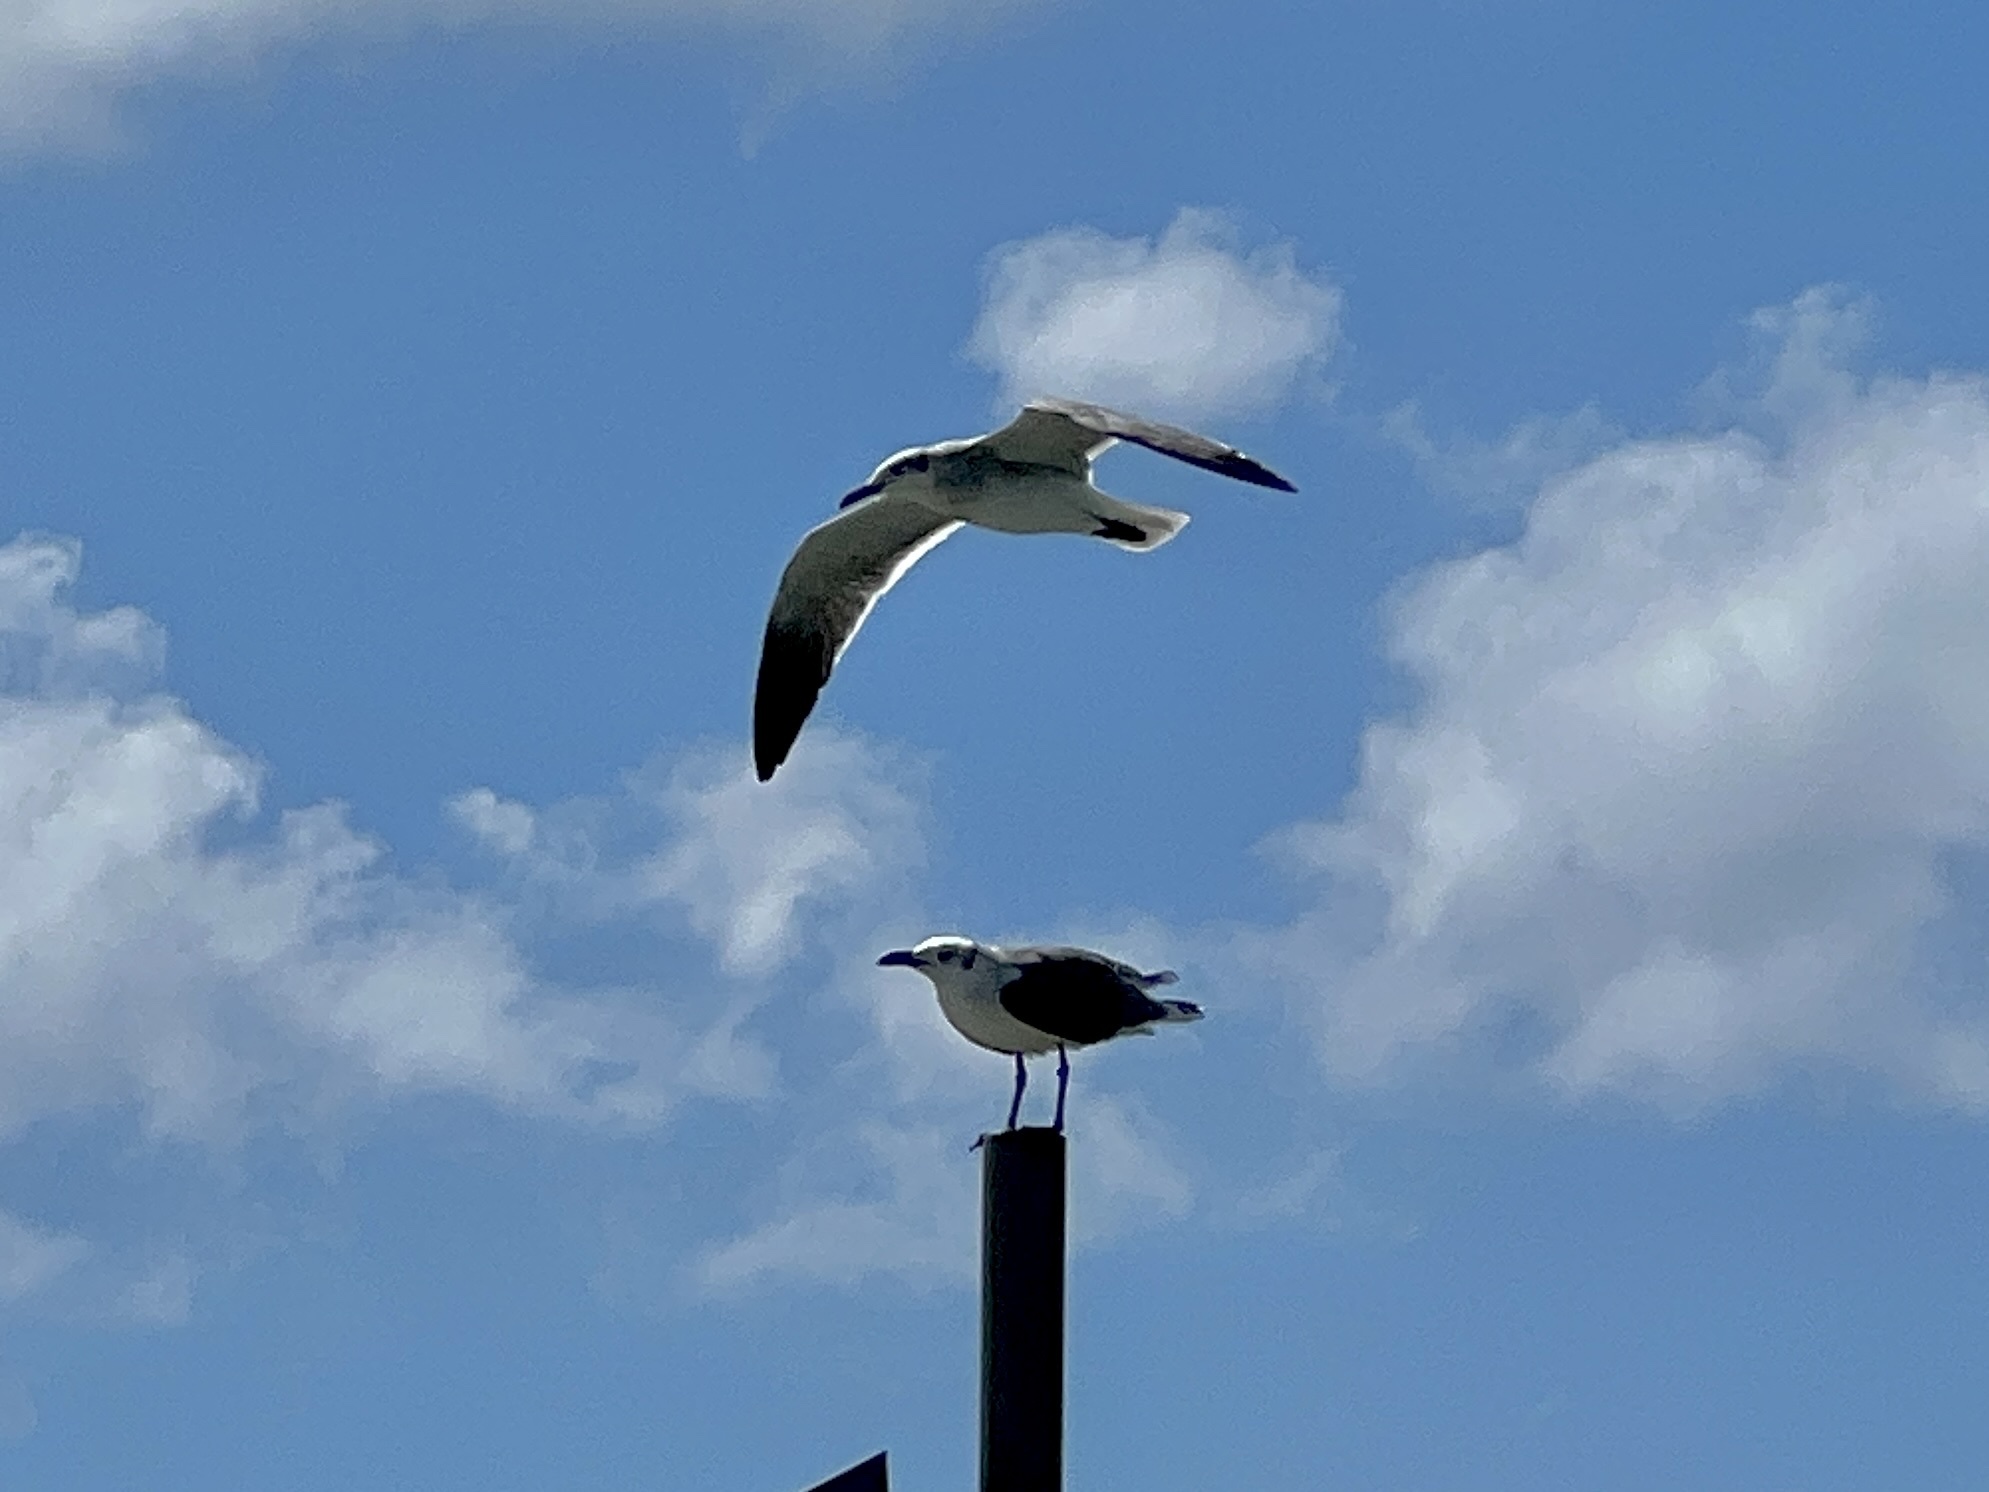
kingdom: Animalia
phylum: Chordata
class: Aves
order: Charadriiformes
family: Laridae
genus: Leucophaeus
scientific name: Leucophaeus atricilla
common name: Laughing gull
